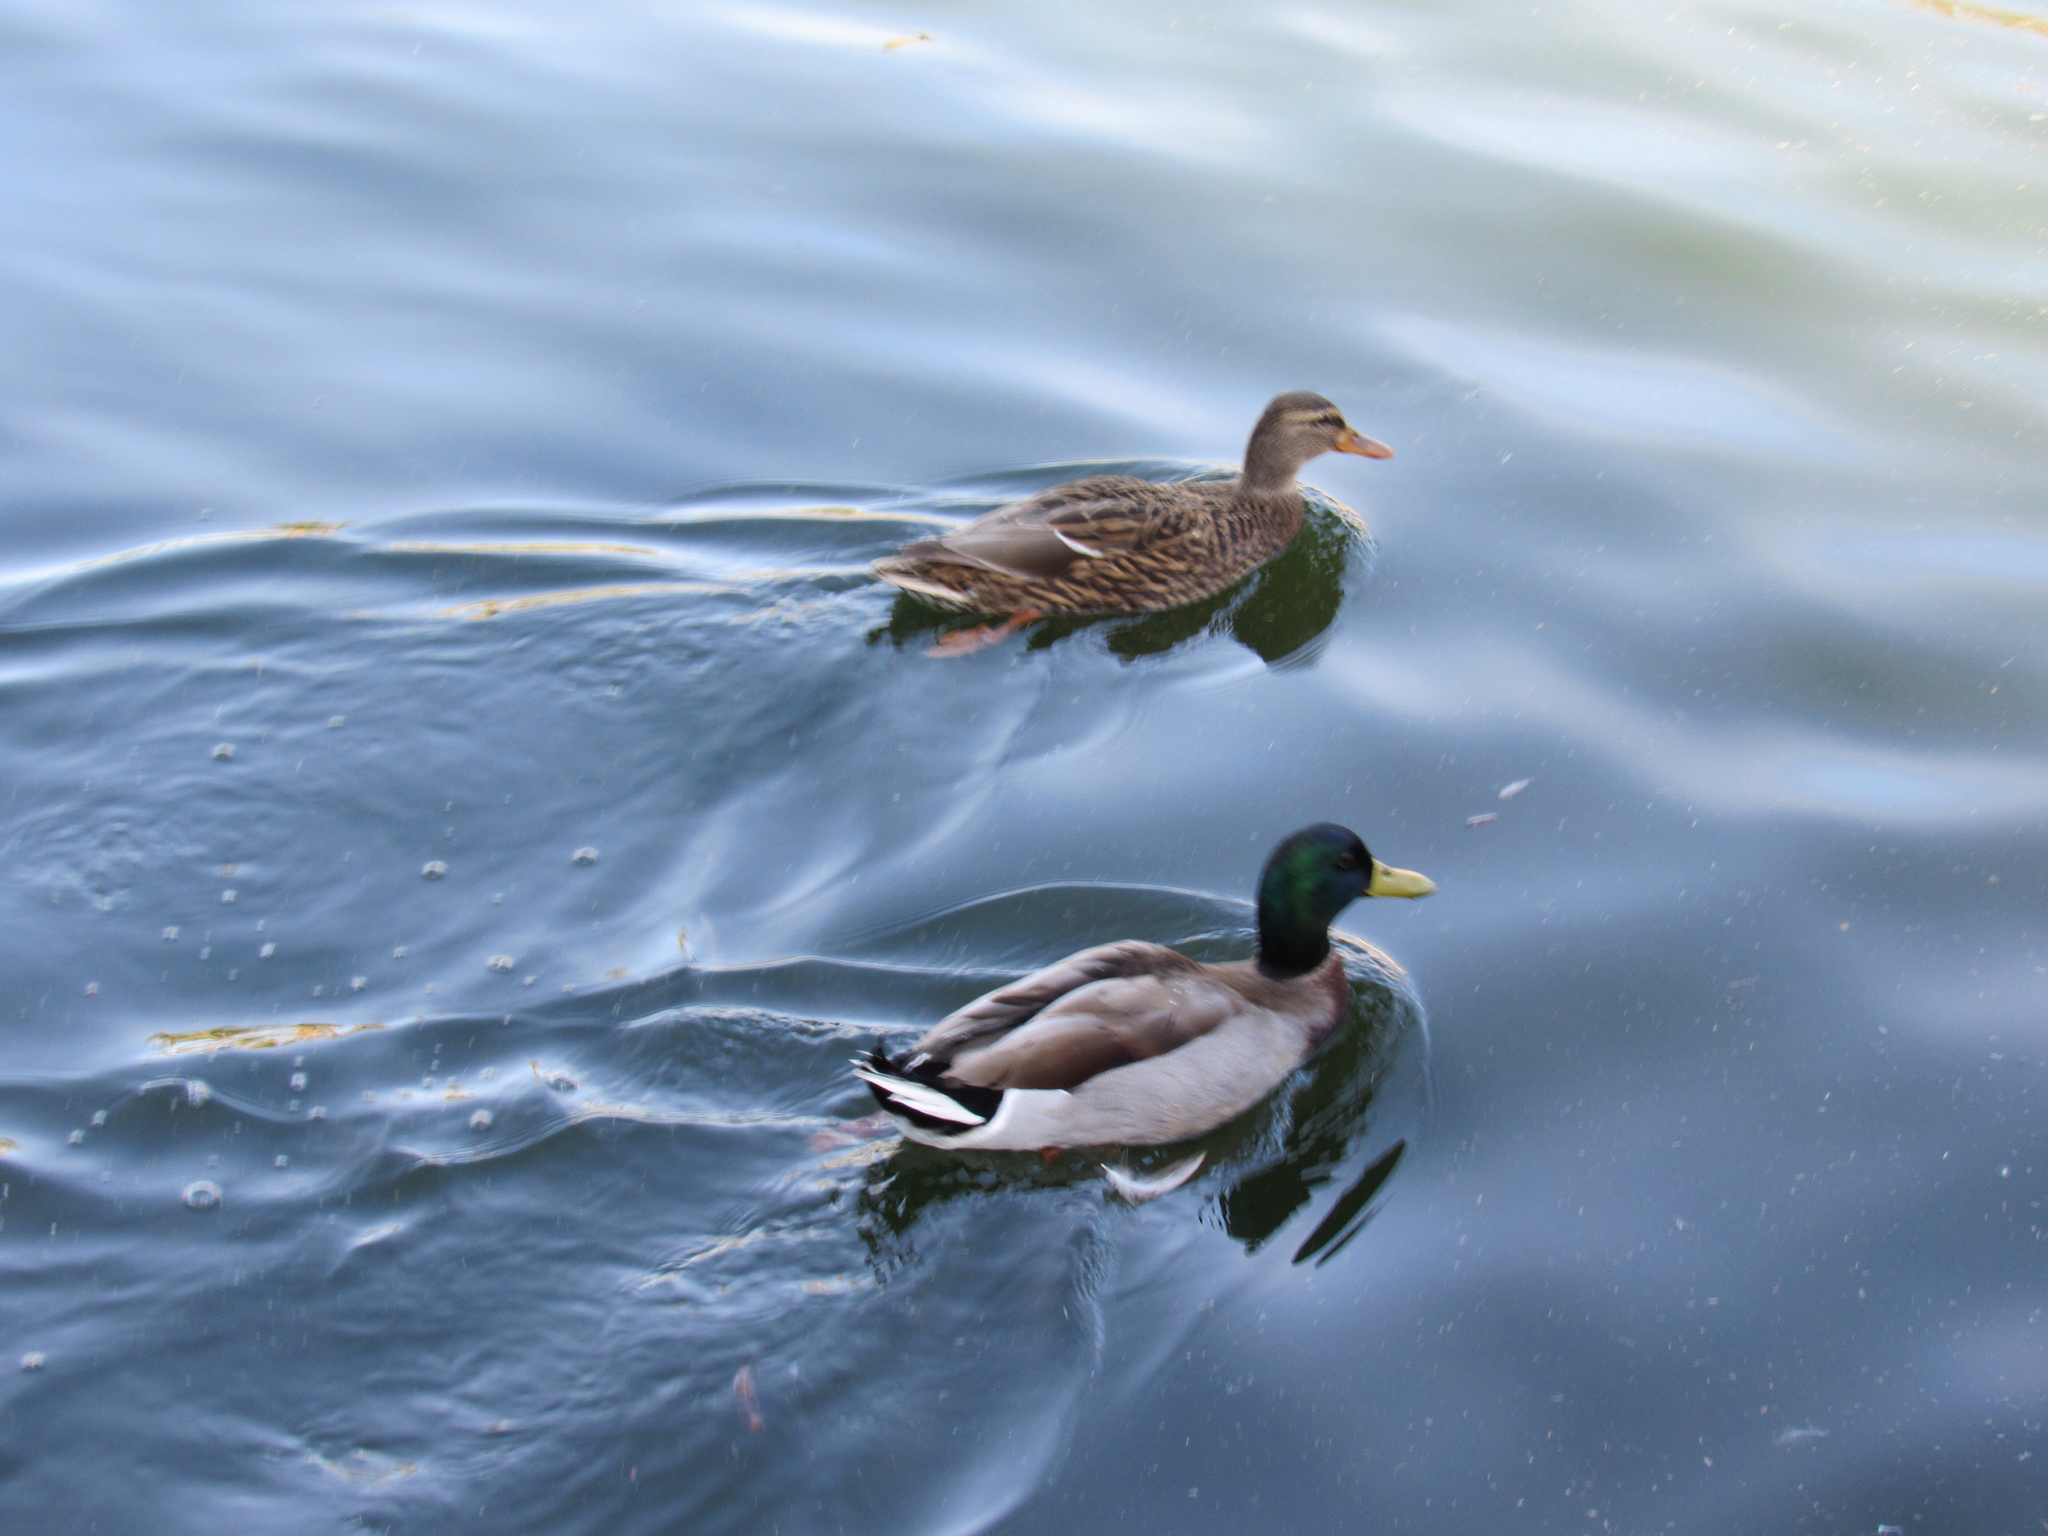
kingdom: Animalia
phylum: Chordata
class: Aves
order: Anseriformes
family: Anatidae
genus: Anas
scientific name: Anas platyrhynchos
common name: Mallard
